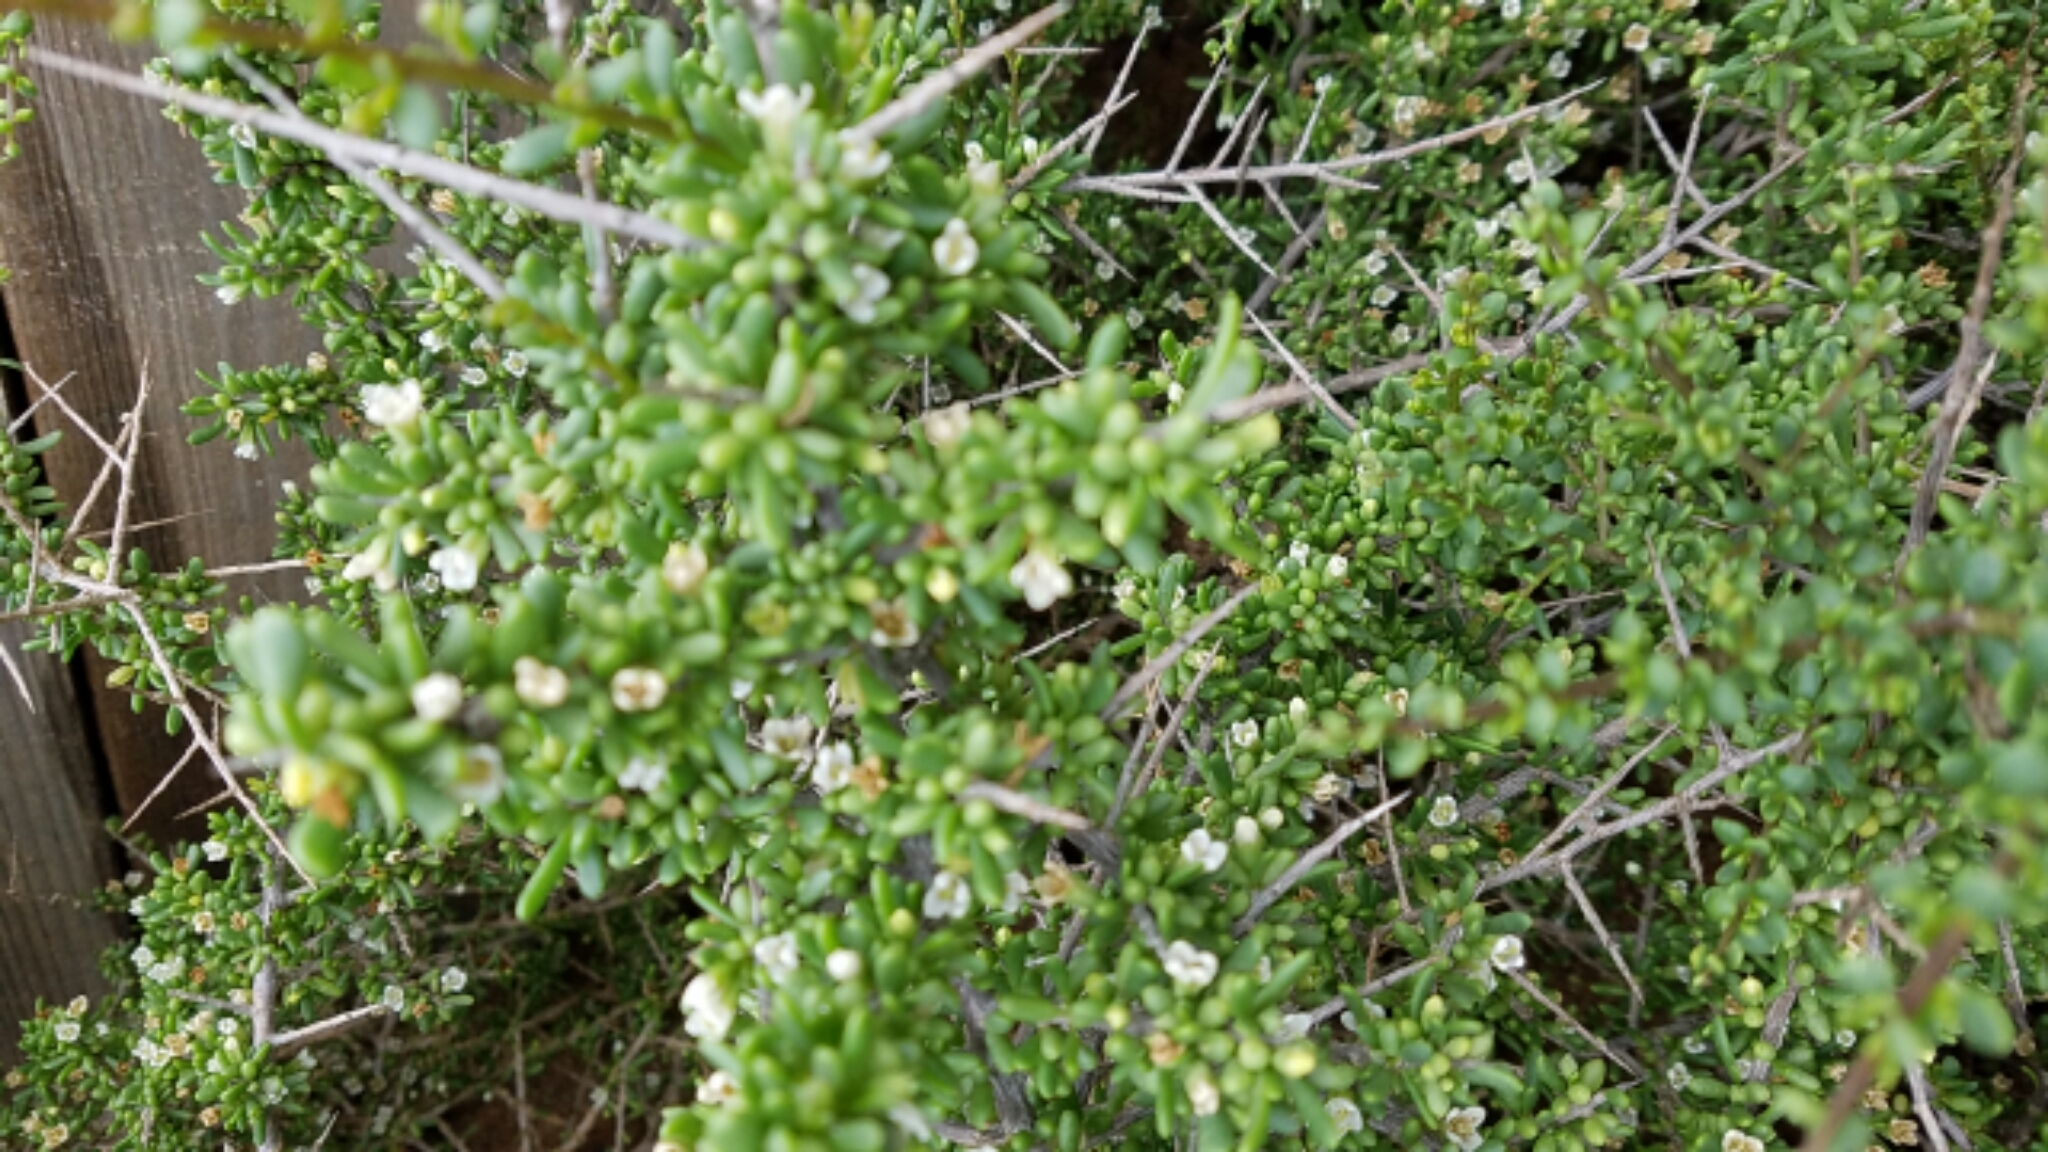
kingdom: Plantae
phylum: Tracheophyta
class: Magnoliopsida
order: Solanales
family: Solanaceae
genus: Lycium
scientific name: Lycium californicum
